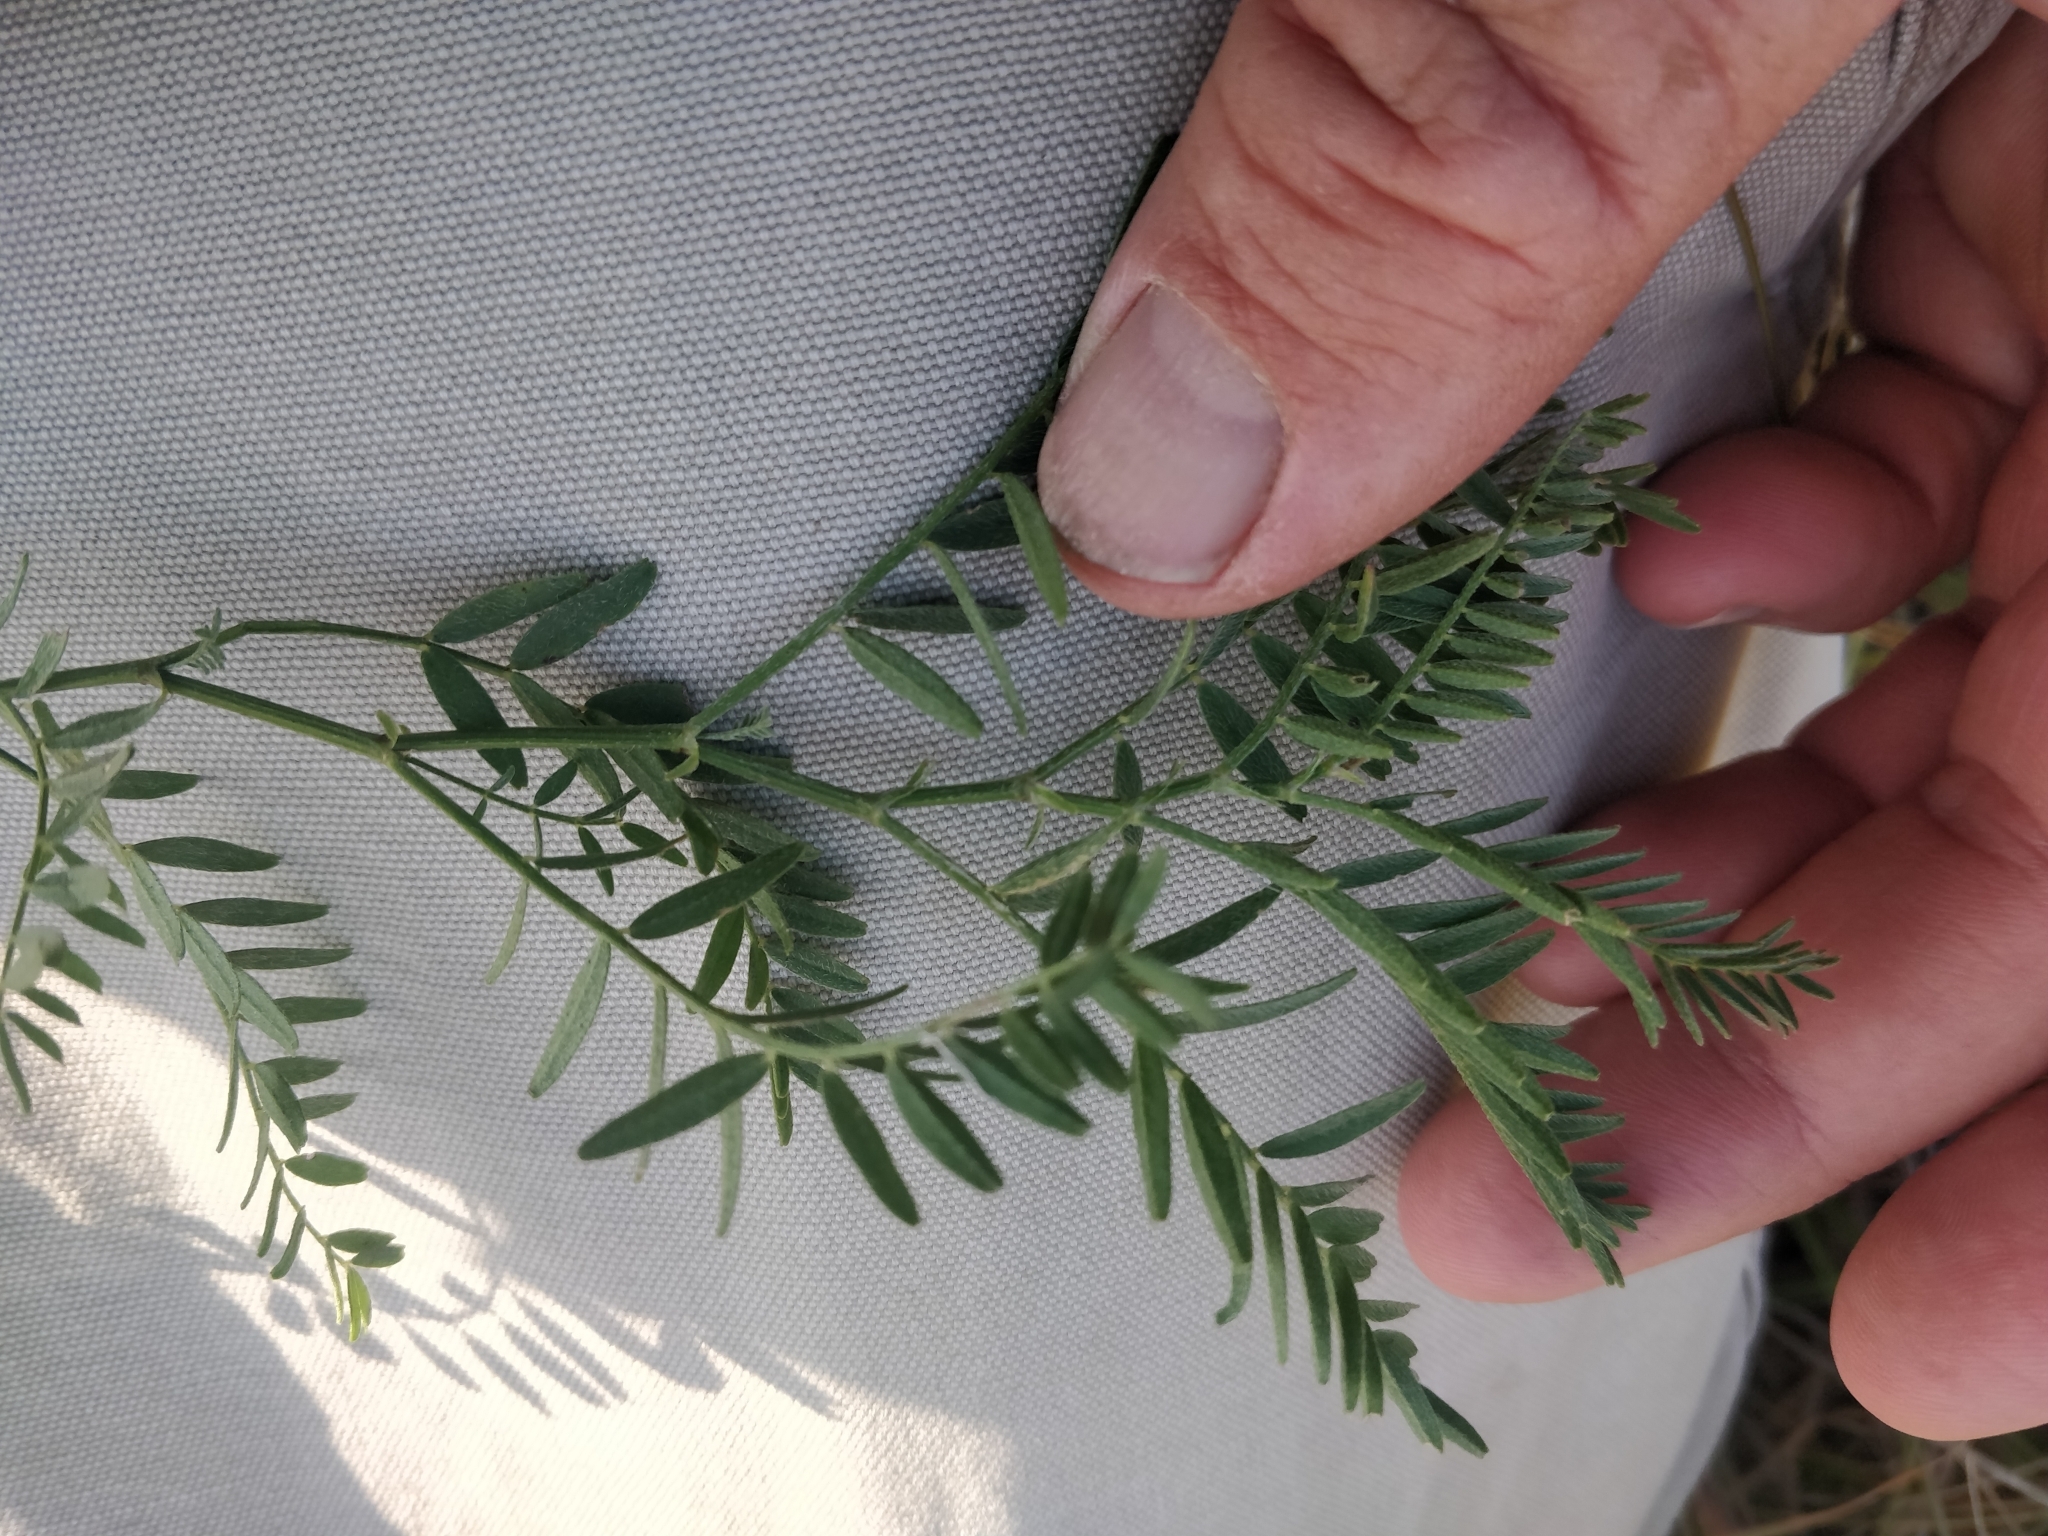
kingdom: Plantae
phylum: Tracheophyta
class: Magnoliopsida
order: Fabales
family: Fabaceae
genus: Astragalus
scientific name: Astragalus agrestis
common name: Field milk-vetch
